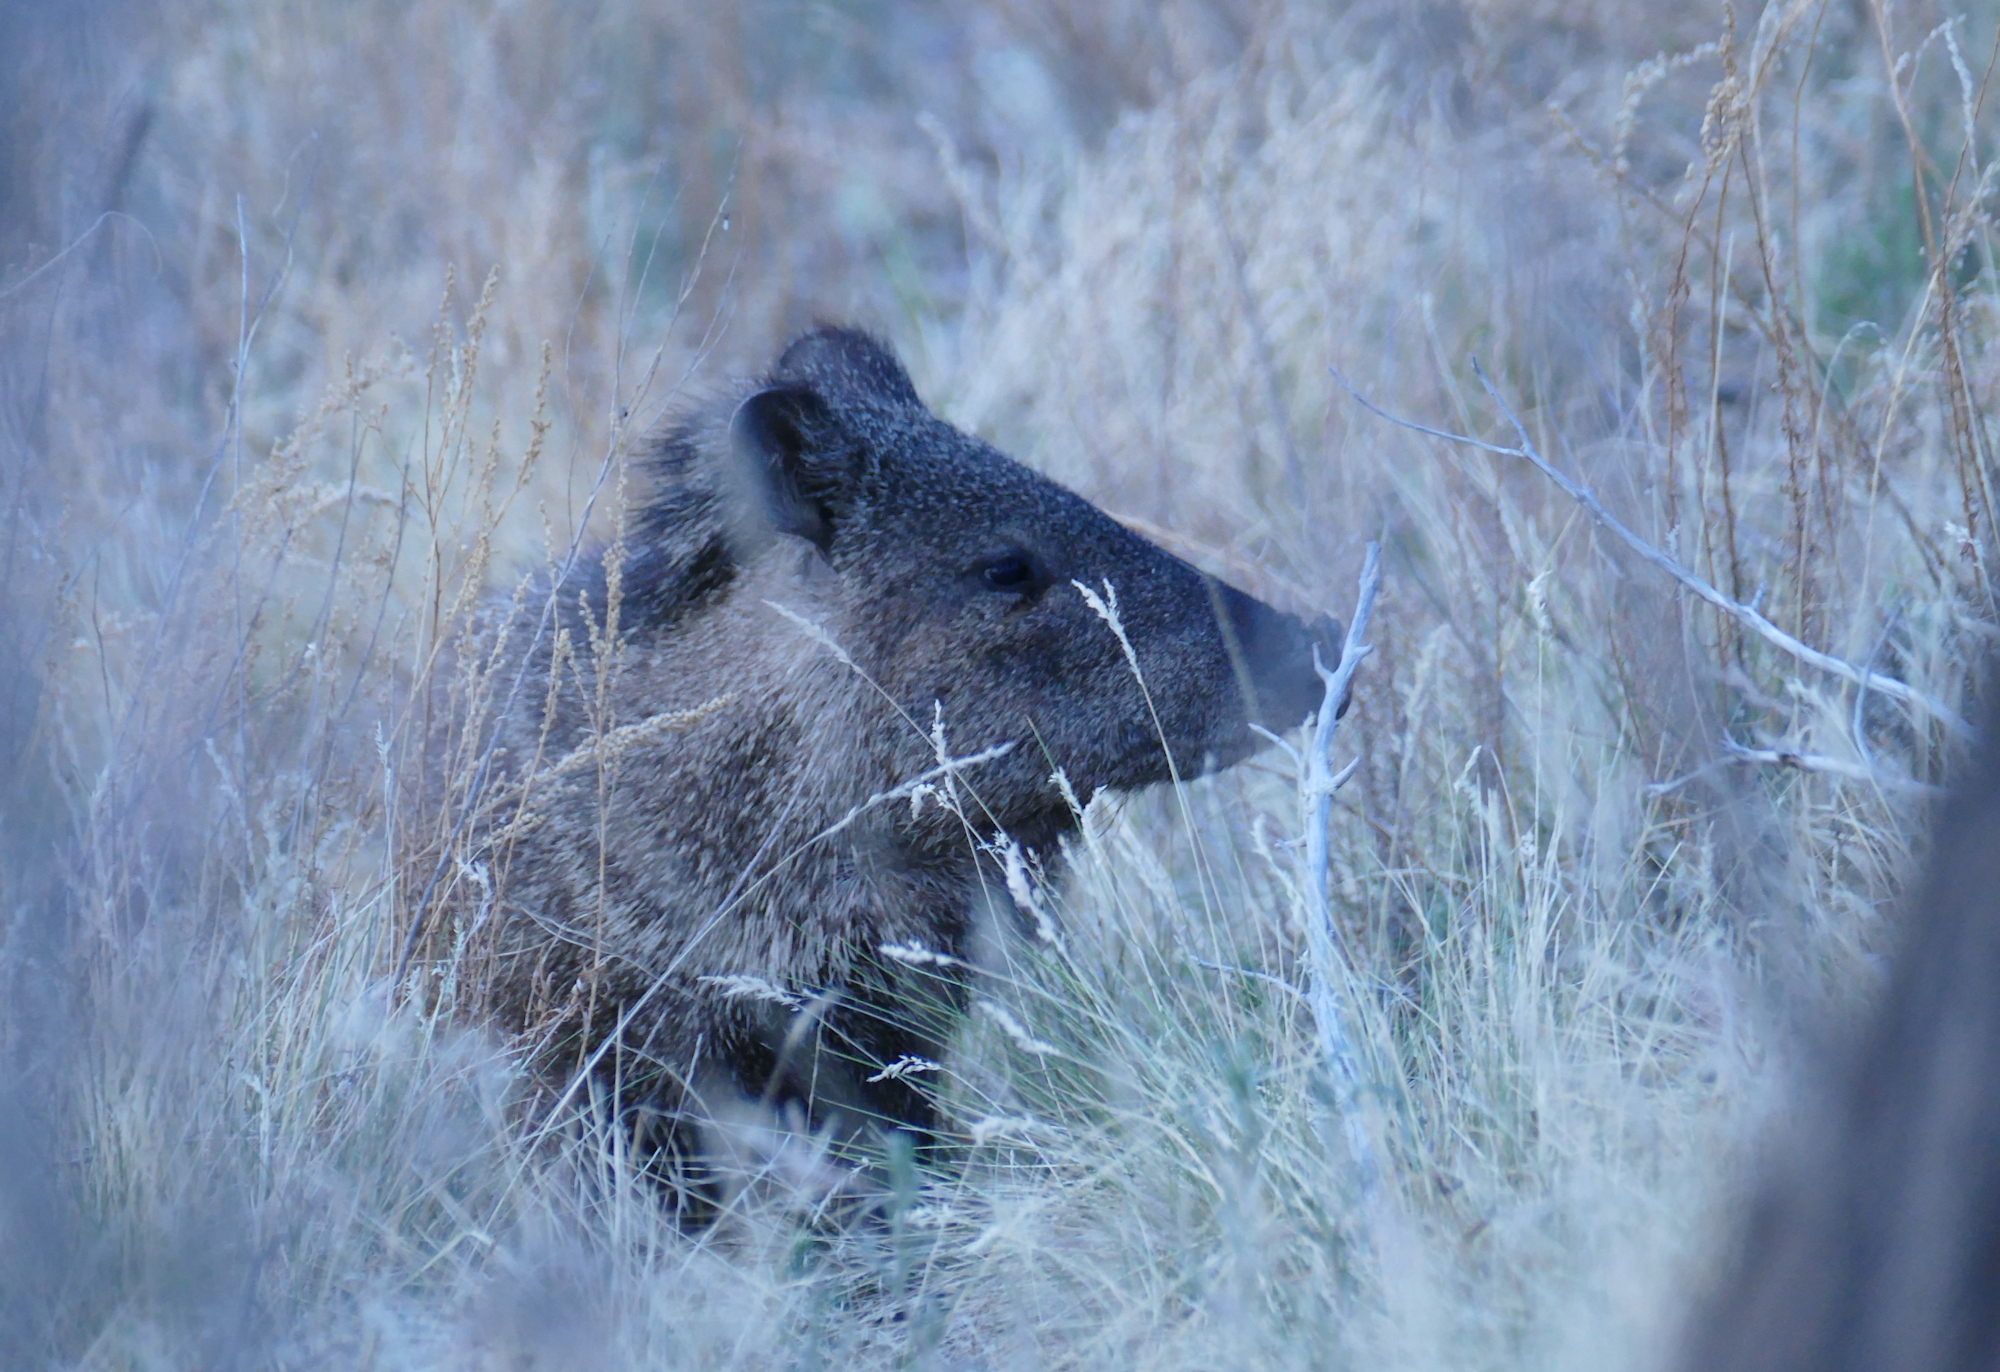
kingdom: Animalia
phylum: Chordata
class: Mammalia
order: Artiodactyla
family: Tayassuidae
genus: Pecari
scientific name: Pecari tajacu
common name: Collared peccary
